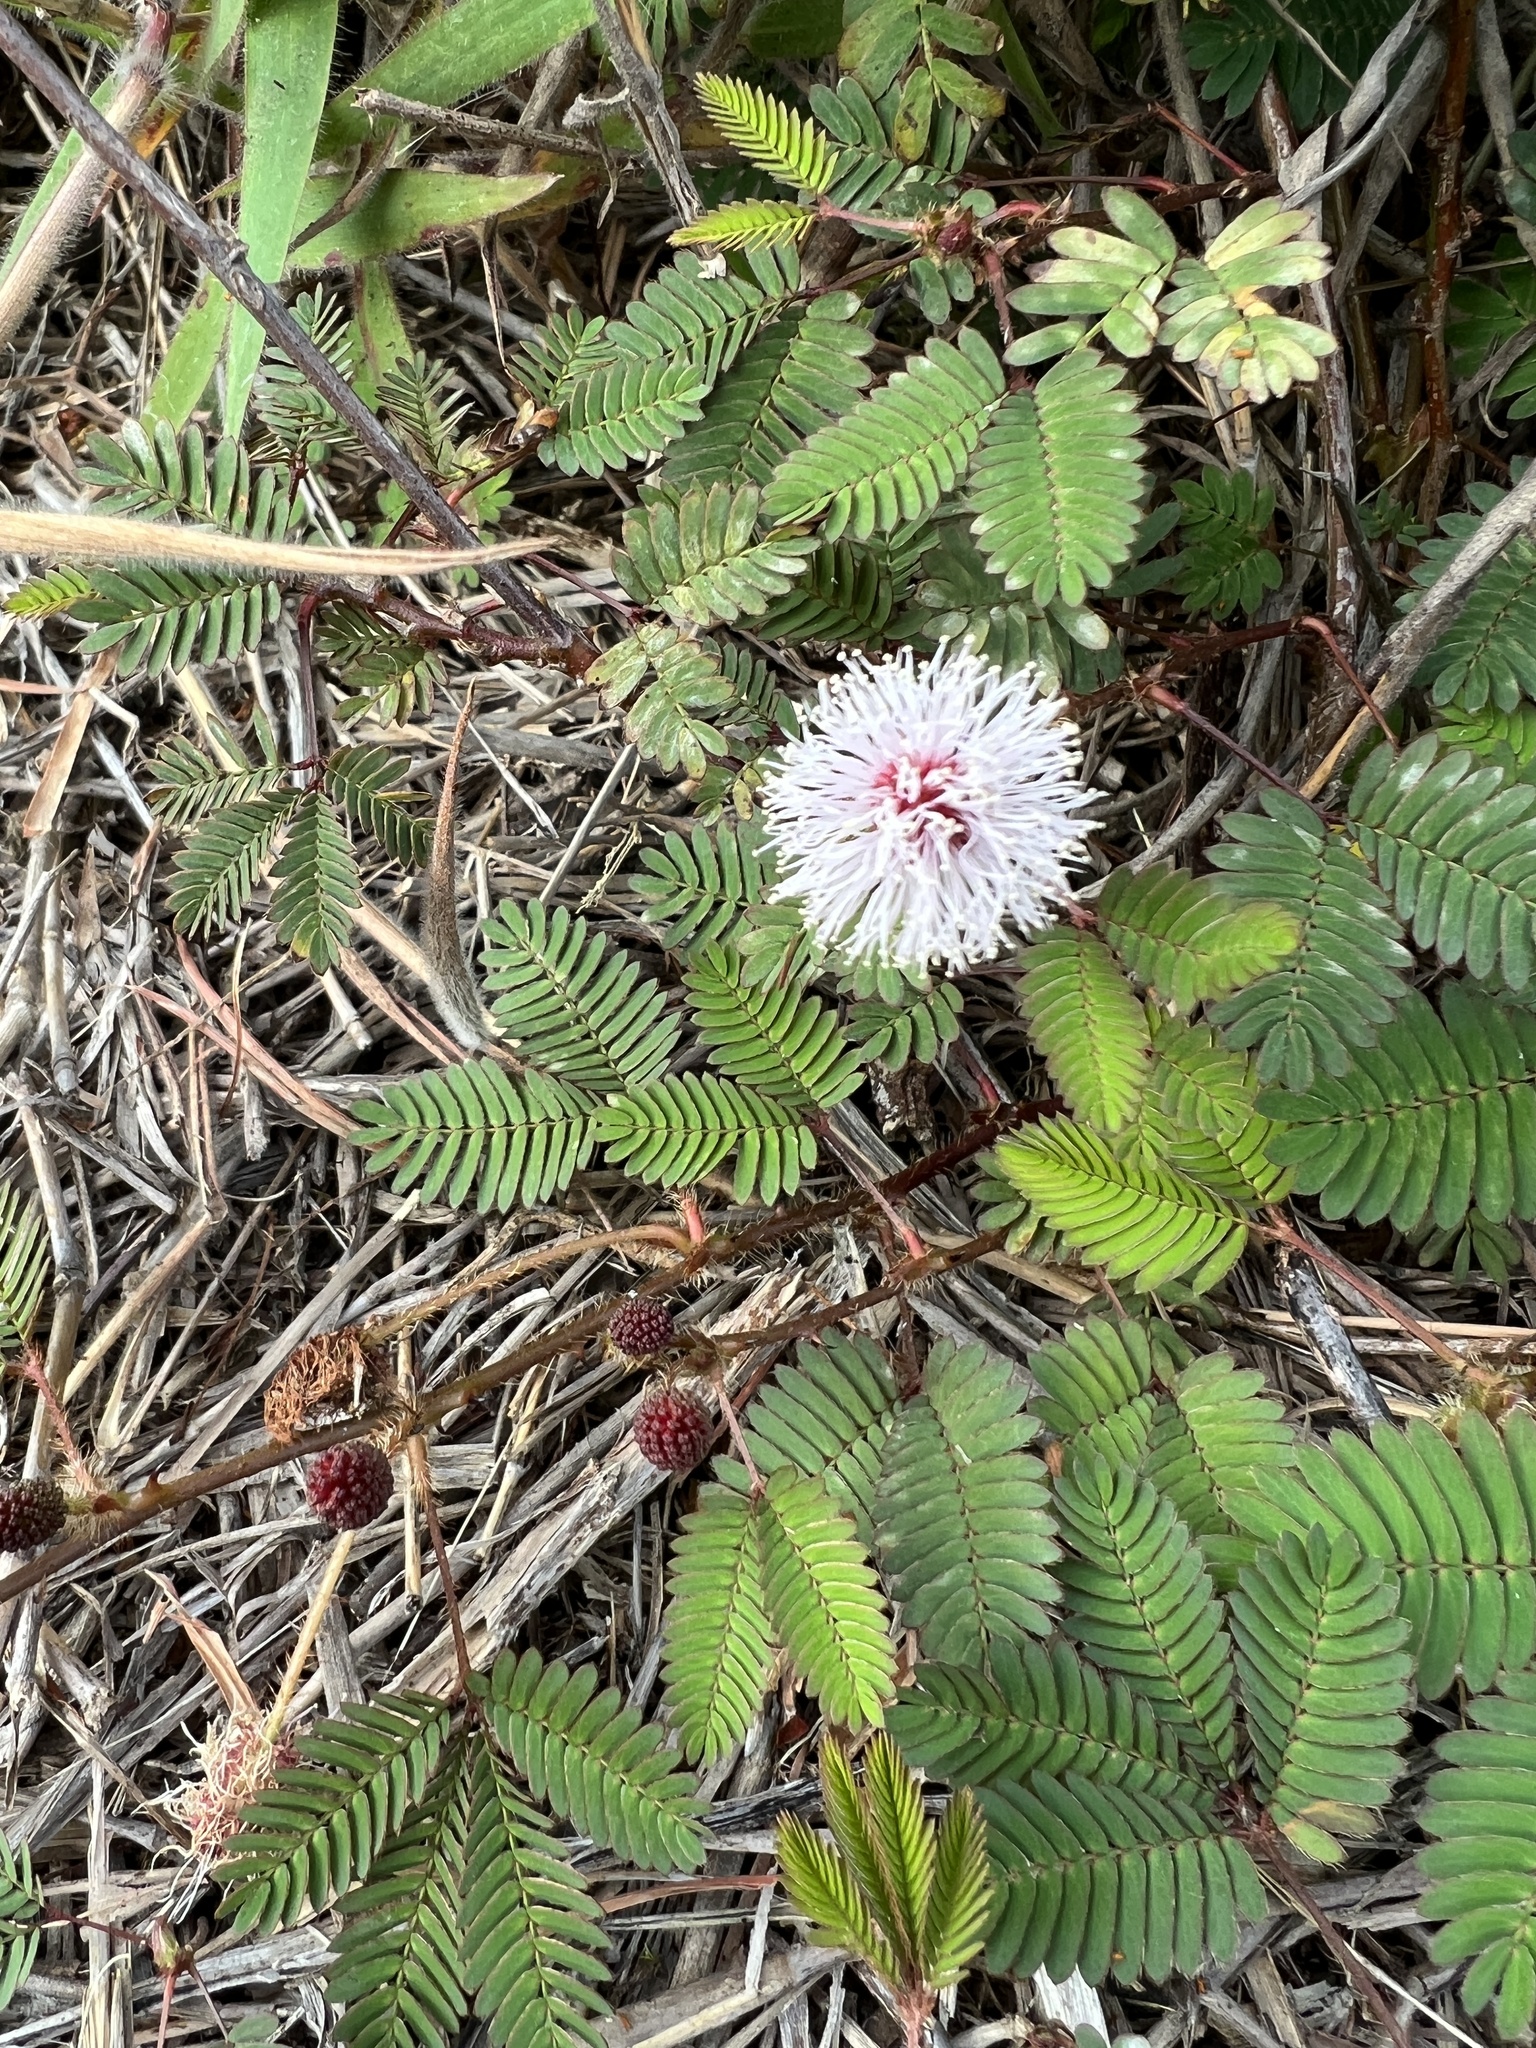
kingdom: Plantae
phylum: Tracheophyta
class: Magnoliopsida
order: Fabales
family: Fabaceae
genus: Mimosa
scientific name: Mimosa pudica
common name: Sensitive plant
